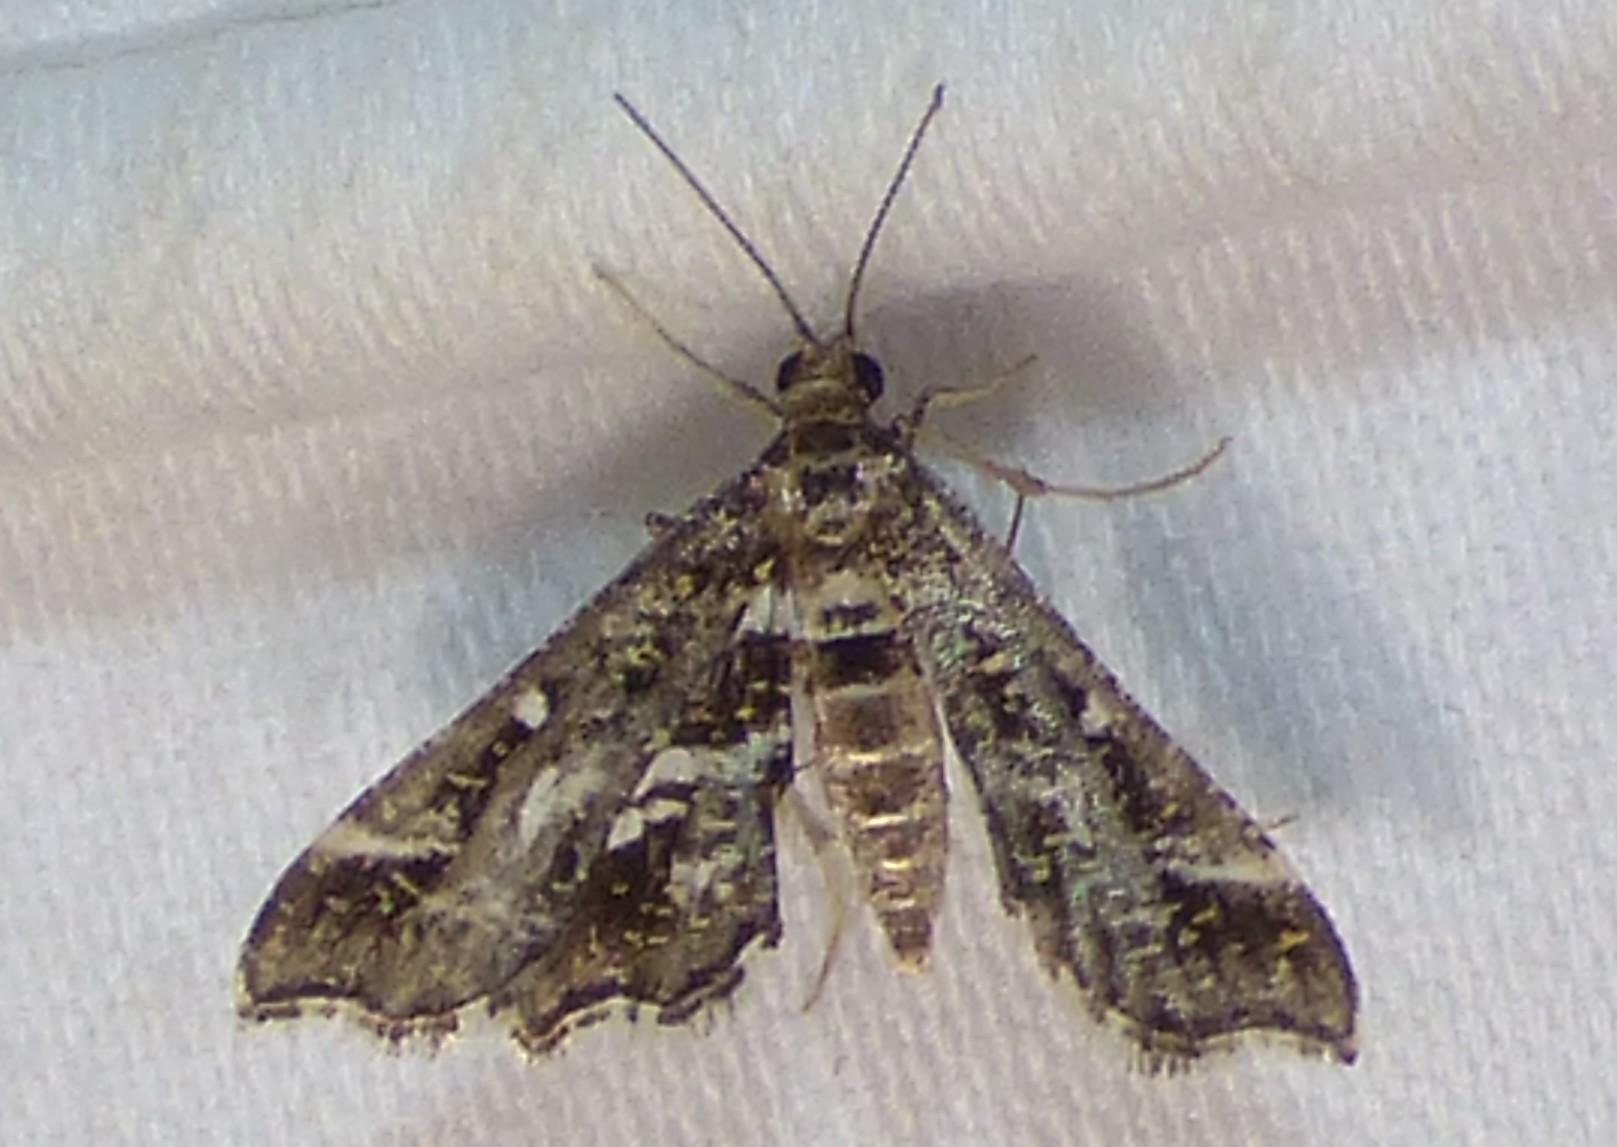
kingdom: Animalia
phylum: Arthropoda
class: Insecta
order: Lepidoptera
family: Crambidae
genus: Diasemiopsis
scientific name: Diasemiopsis ramburialis
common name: Vagrant china-mark
